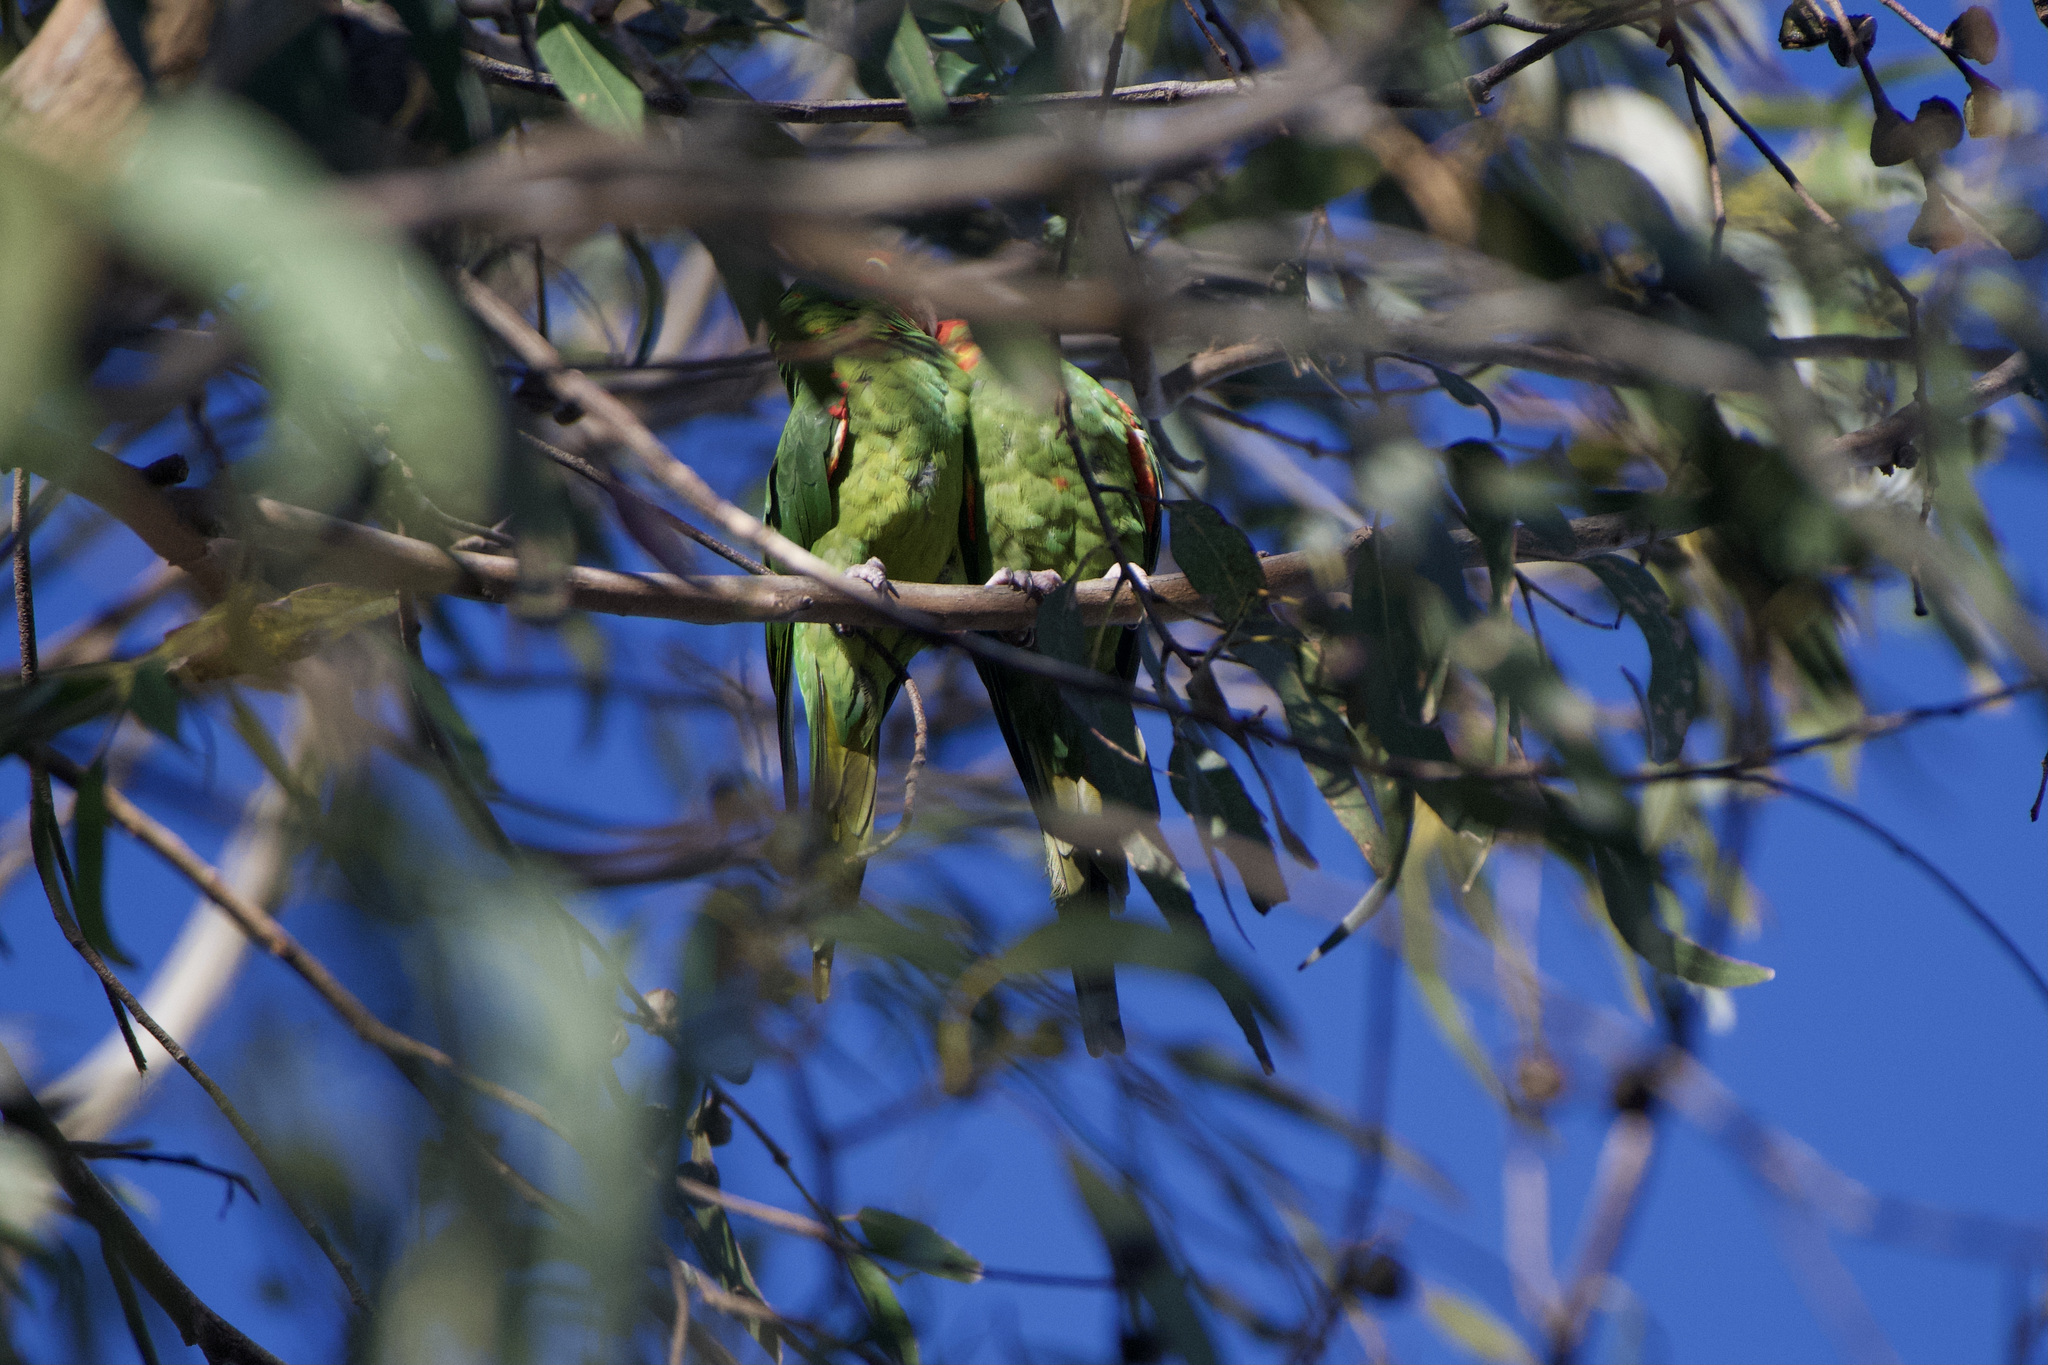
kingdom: Animalia
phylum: Chordata
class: Aves
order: Psittaciformes
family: Psittacidae
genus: Aratinga
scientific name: Aratinga erythrogenys
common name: Red-masked parakeet
